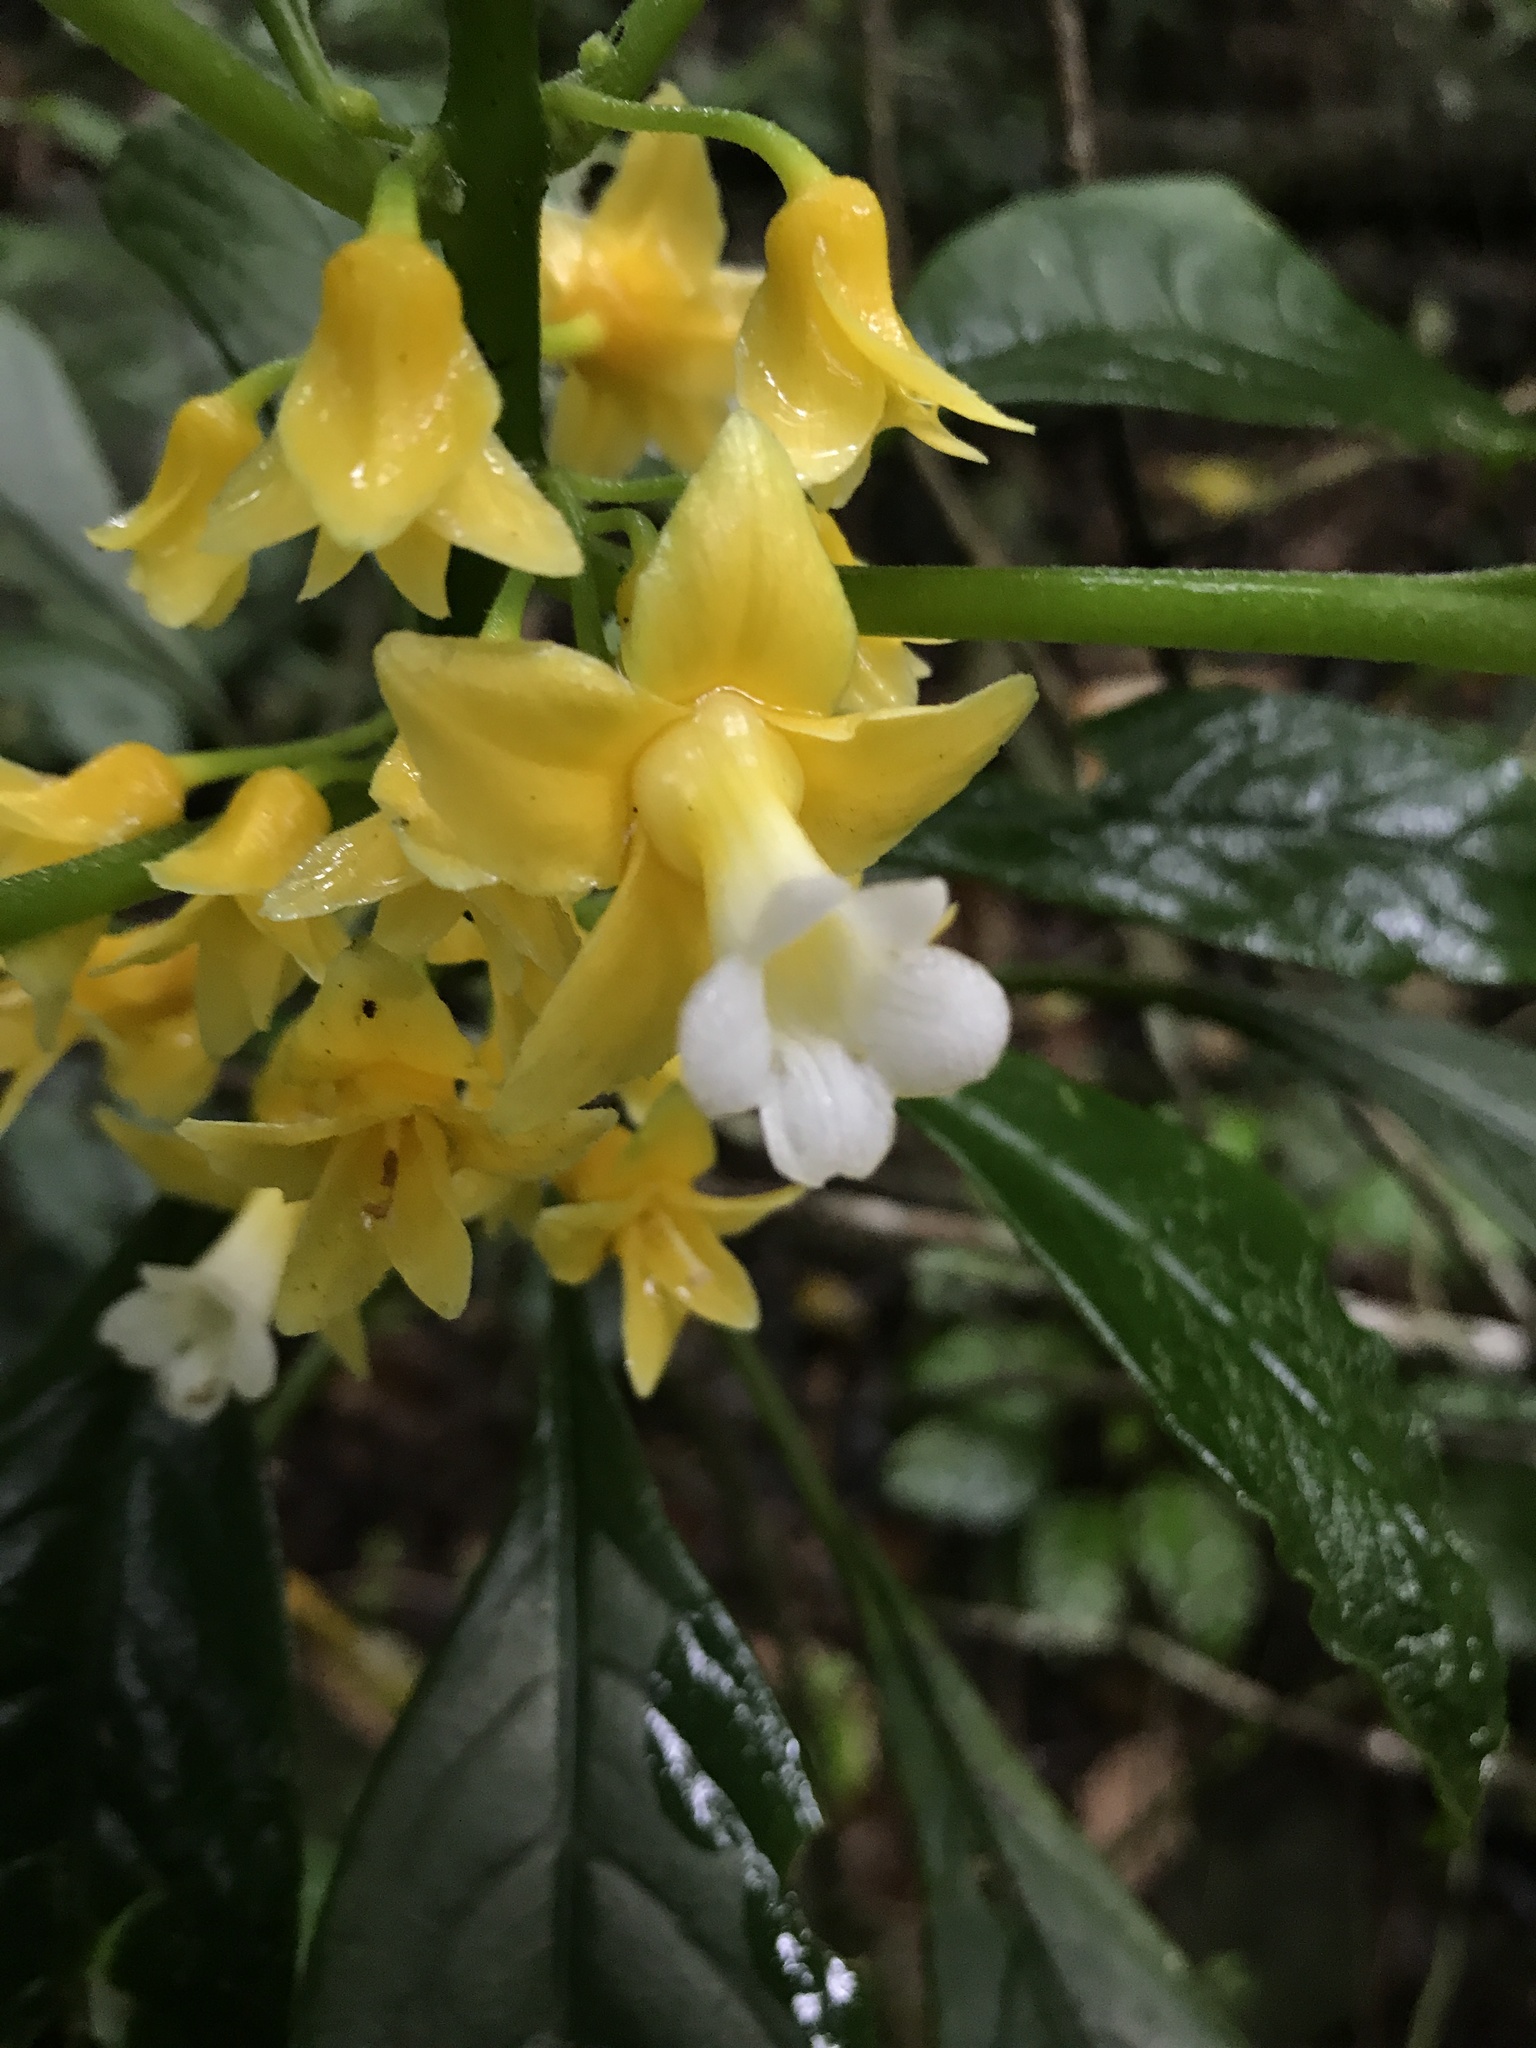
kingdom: Plantae
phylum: Tracheophyta
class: Magnoliopsida
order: Lamiales
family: Gesneriaceae
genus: Besleria
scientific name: Besleria melancholica
